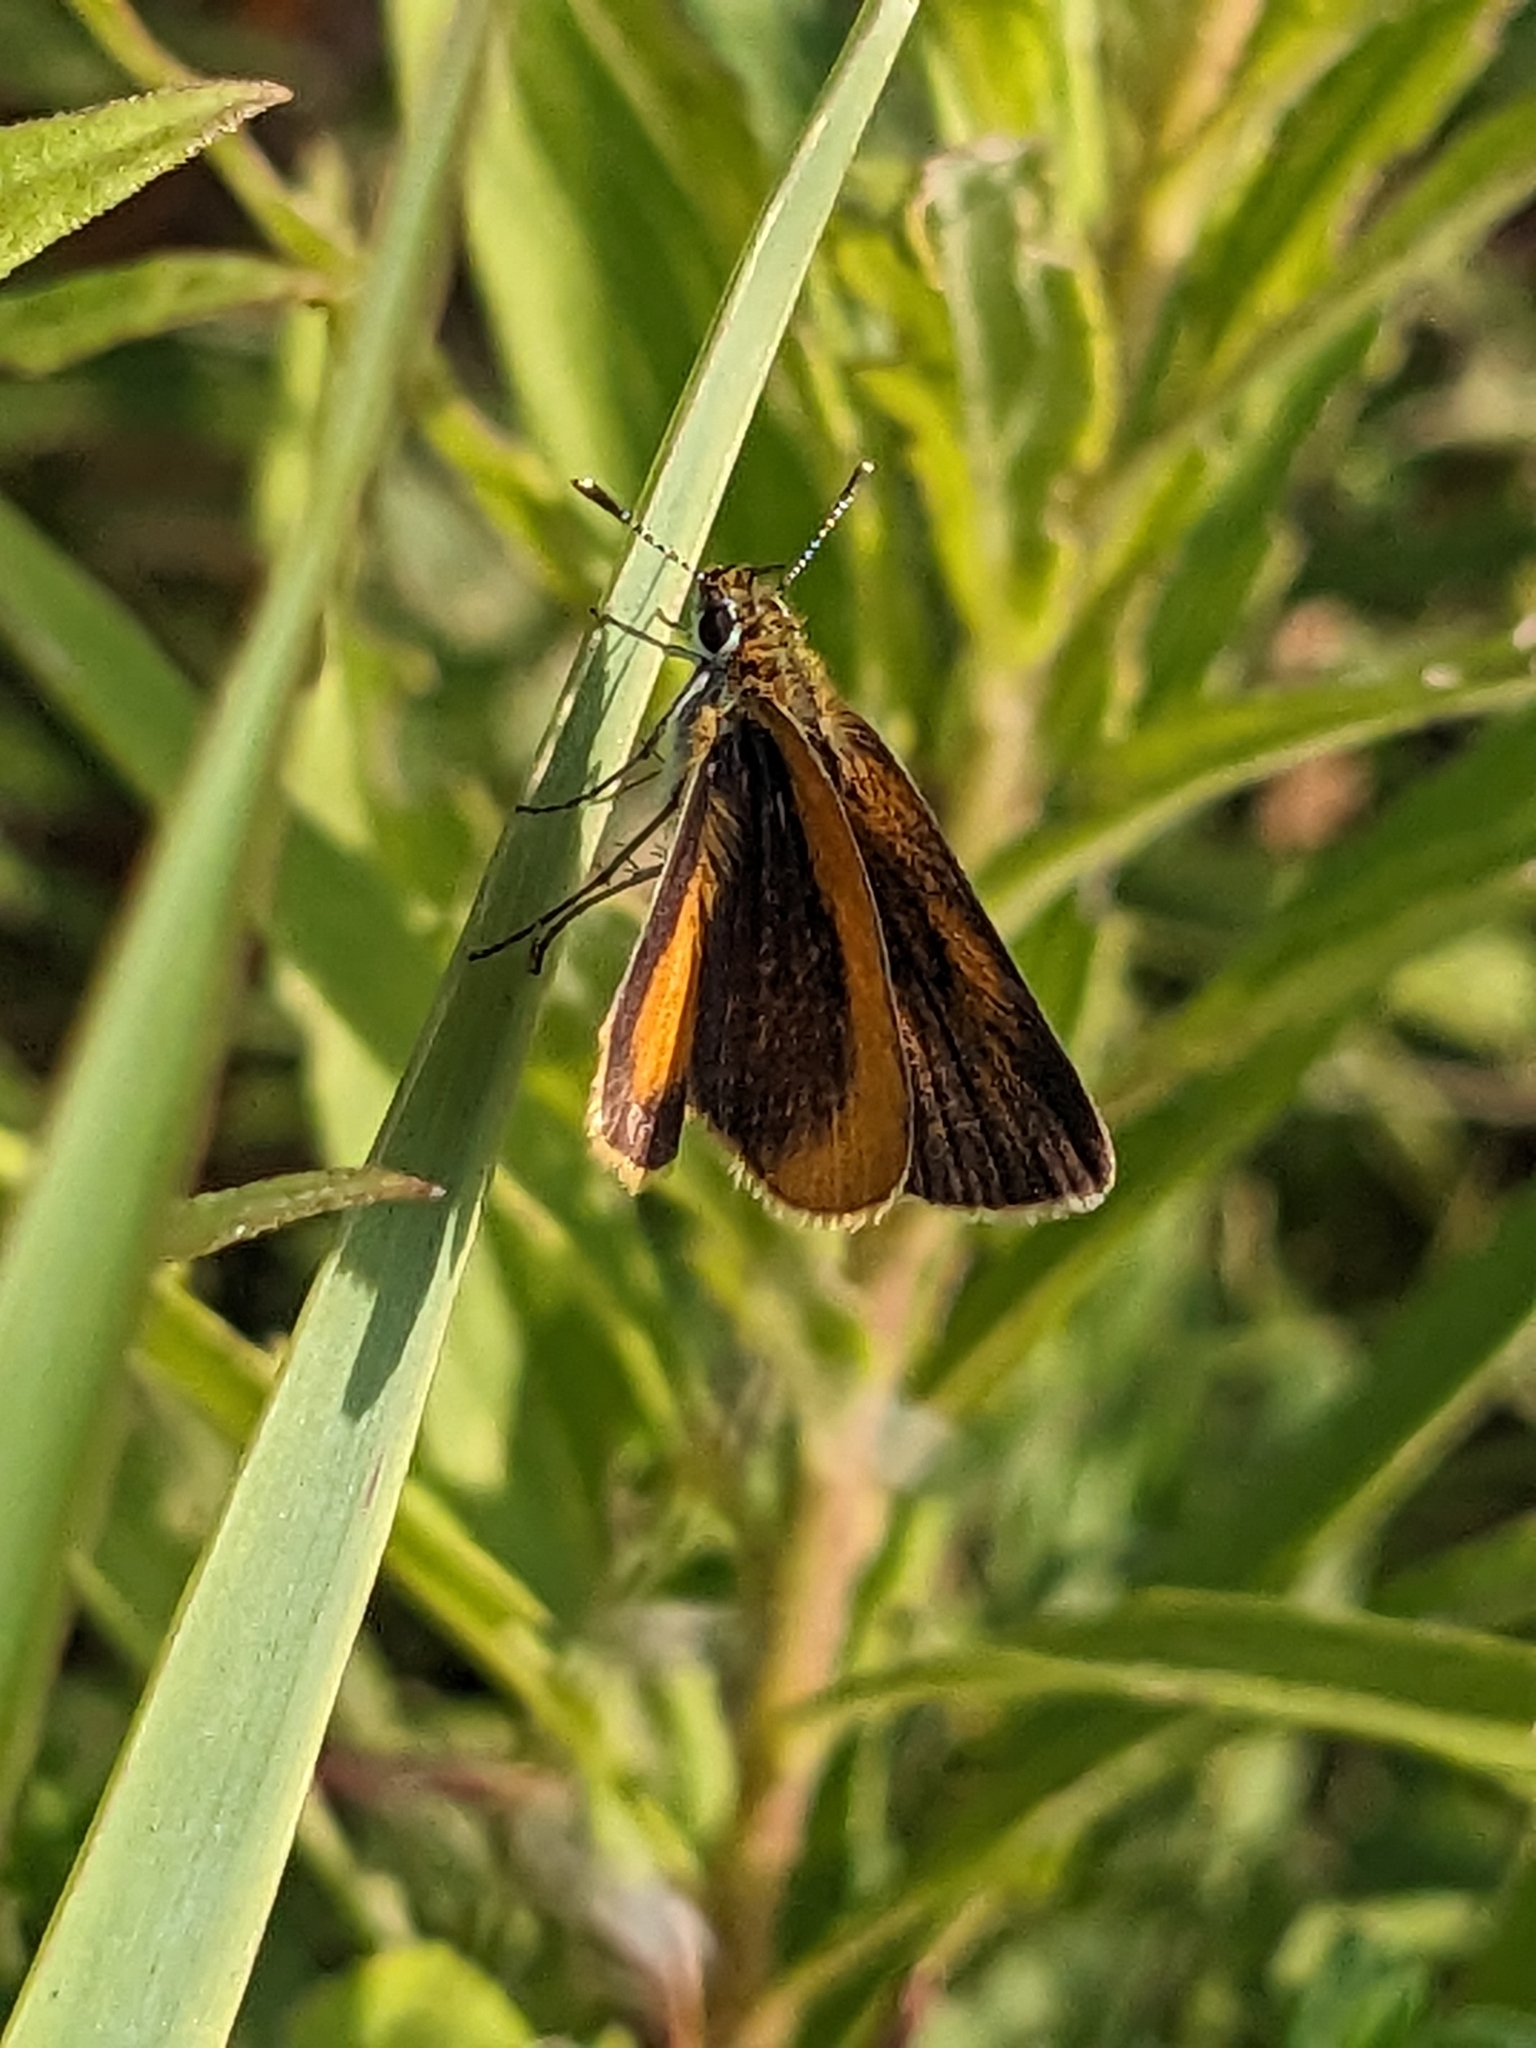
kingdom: Animalia
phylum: Arthropoda
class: Insecta
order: Lepidoptera
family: Hesperiidae
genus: Ancyloxypha
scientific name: Ancyloxypha numitor
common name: Least skipper
